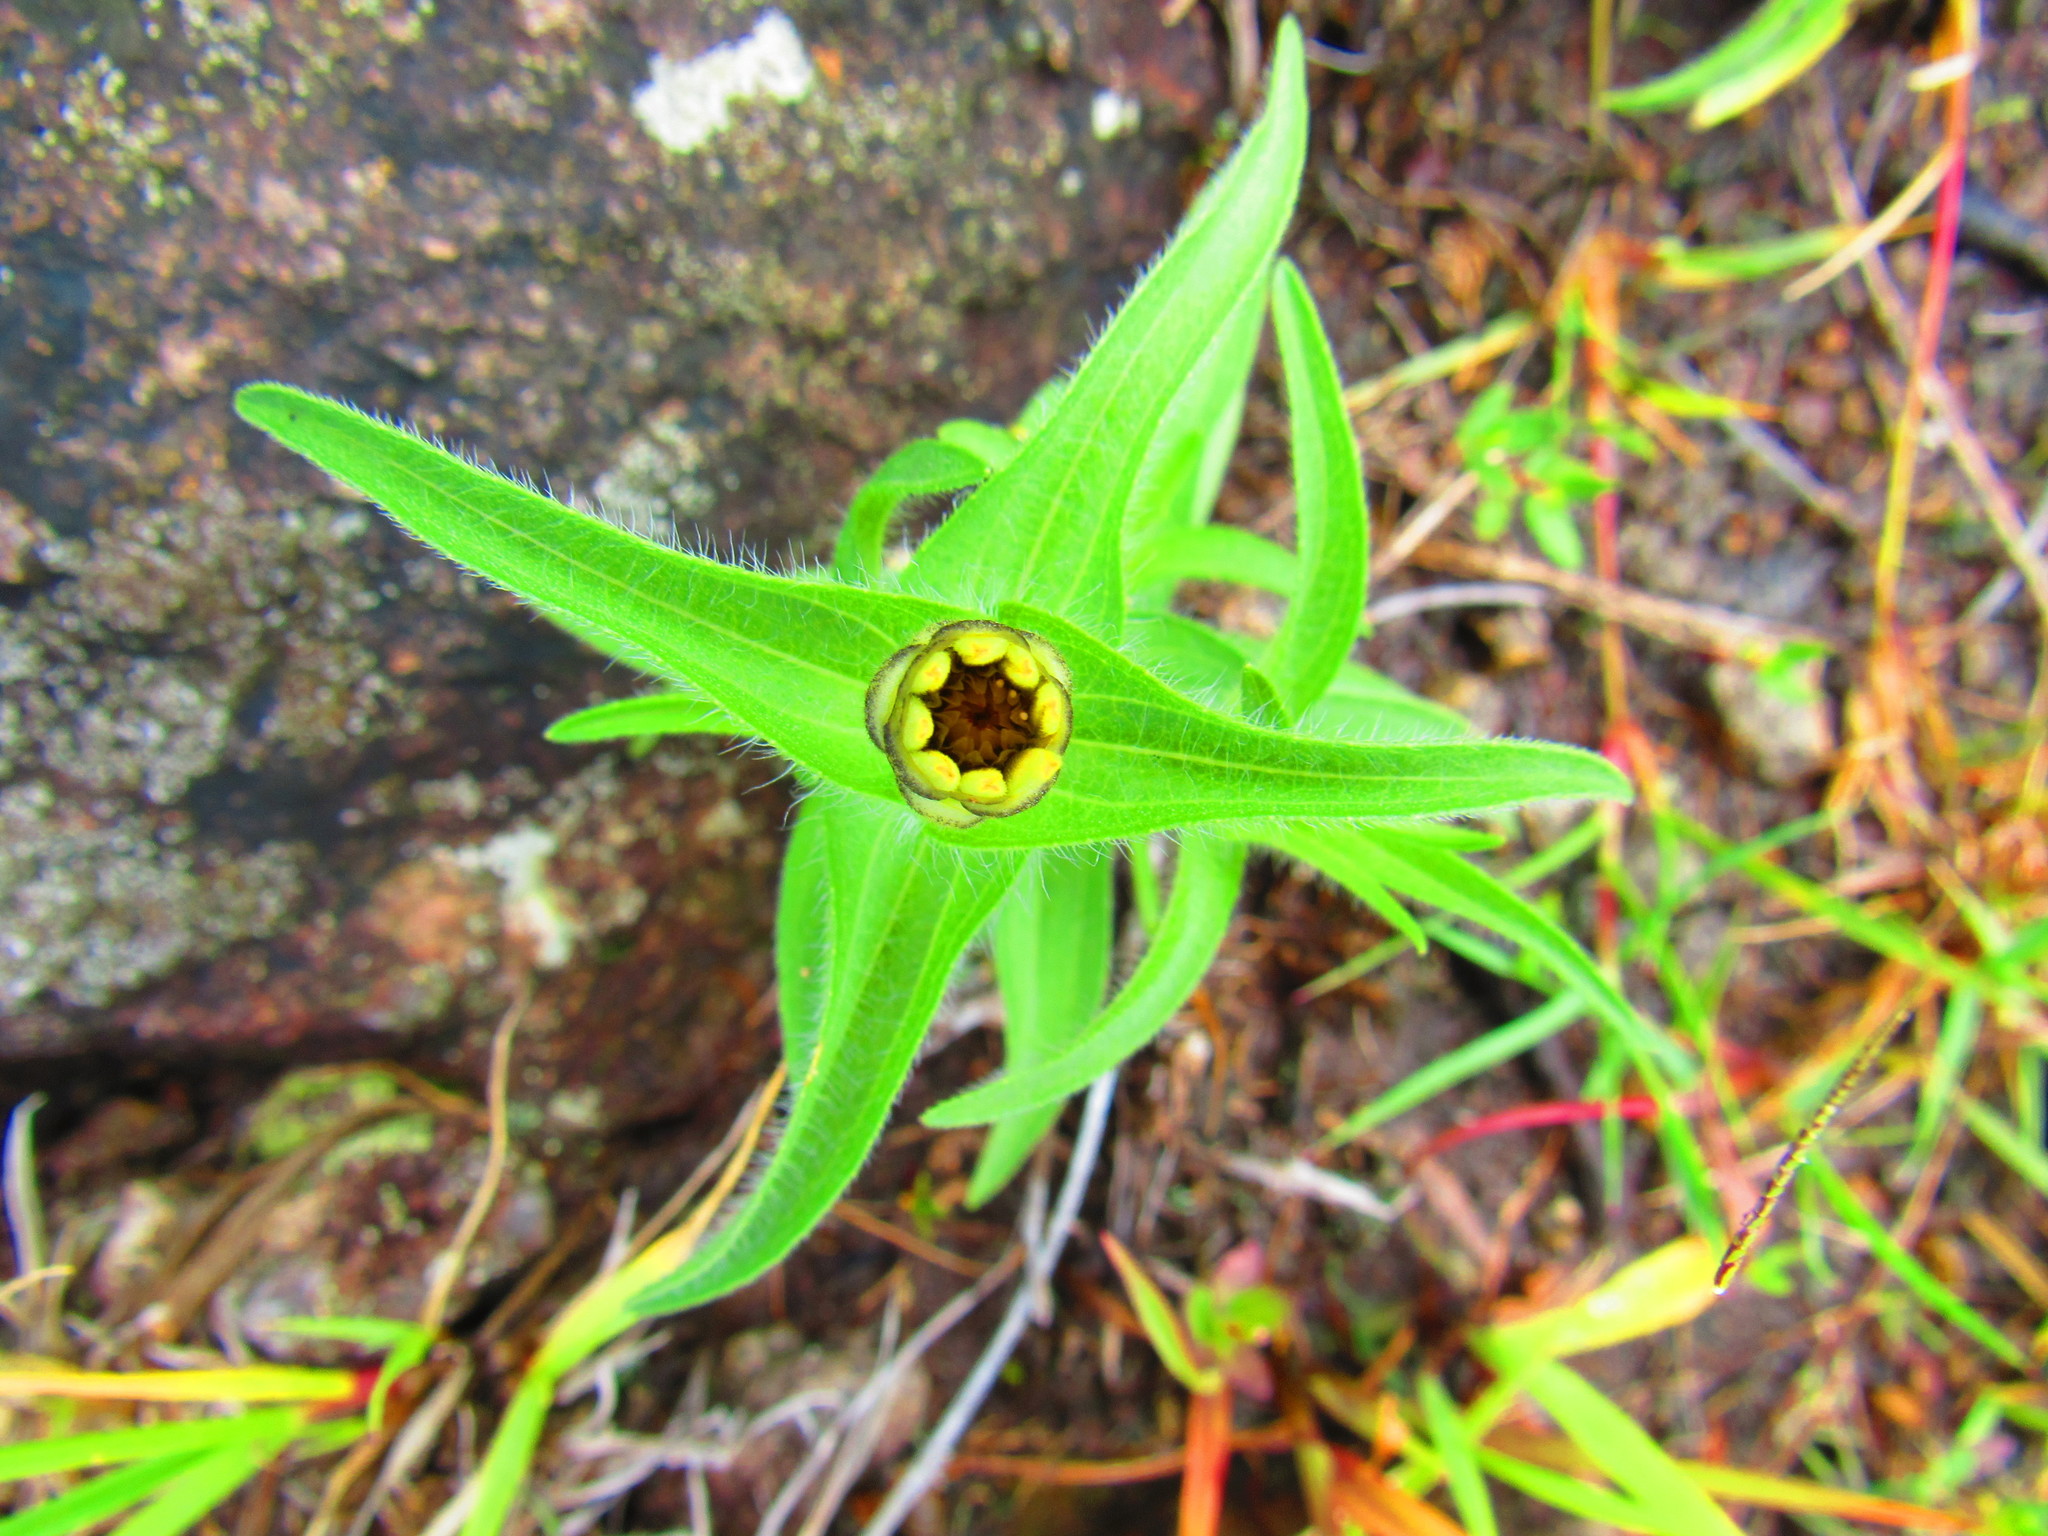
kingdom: Plantae
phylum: Tracheophyta
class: Magnoliopsida
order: Asterales
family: Asteraceae
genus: Zinnia
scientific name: Zinnia haageana
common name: Mexican zinnia
